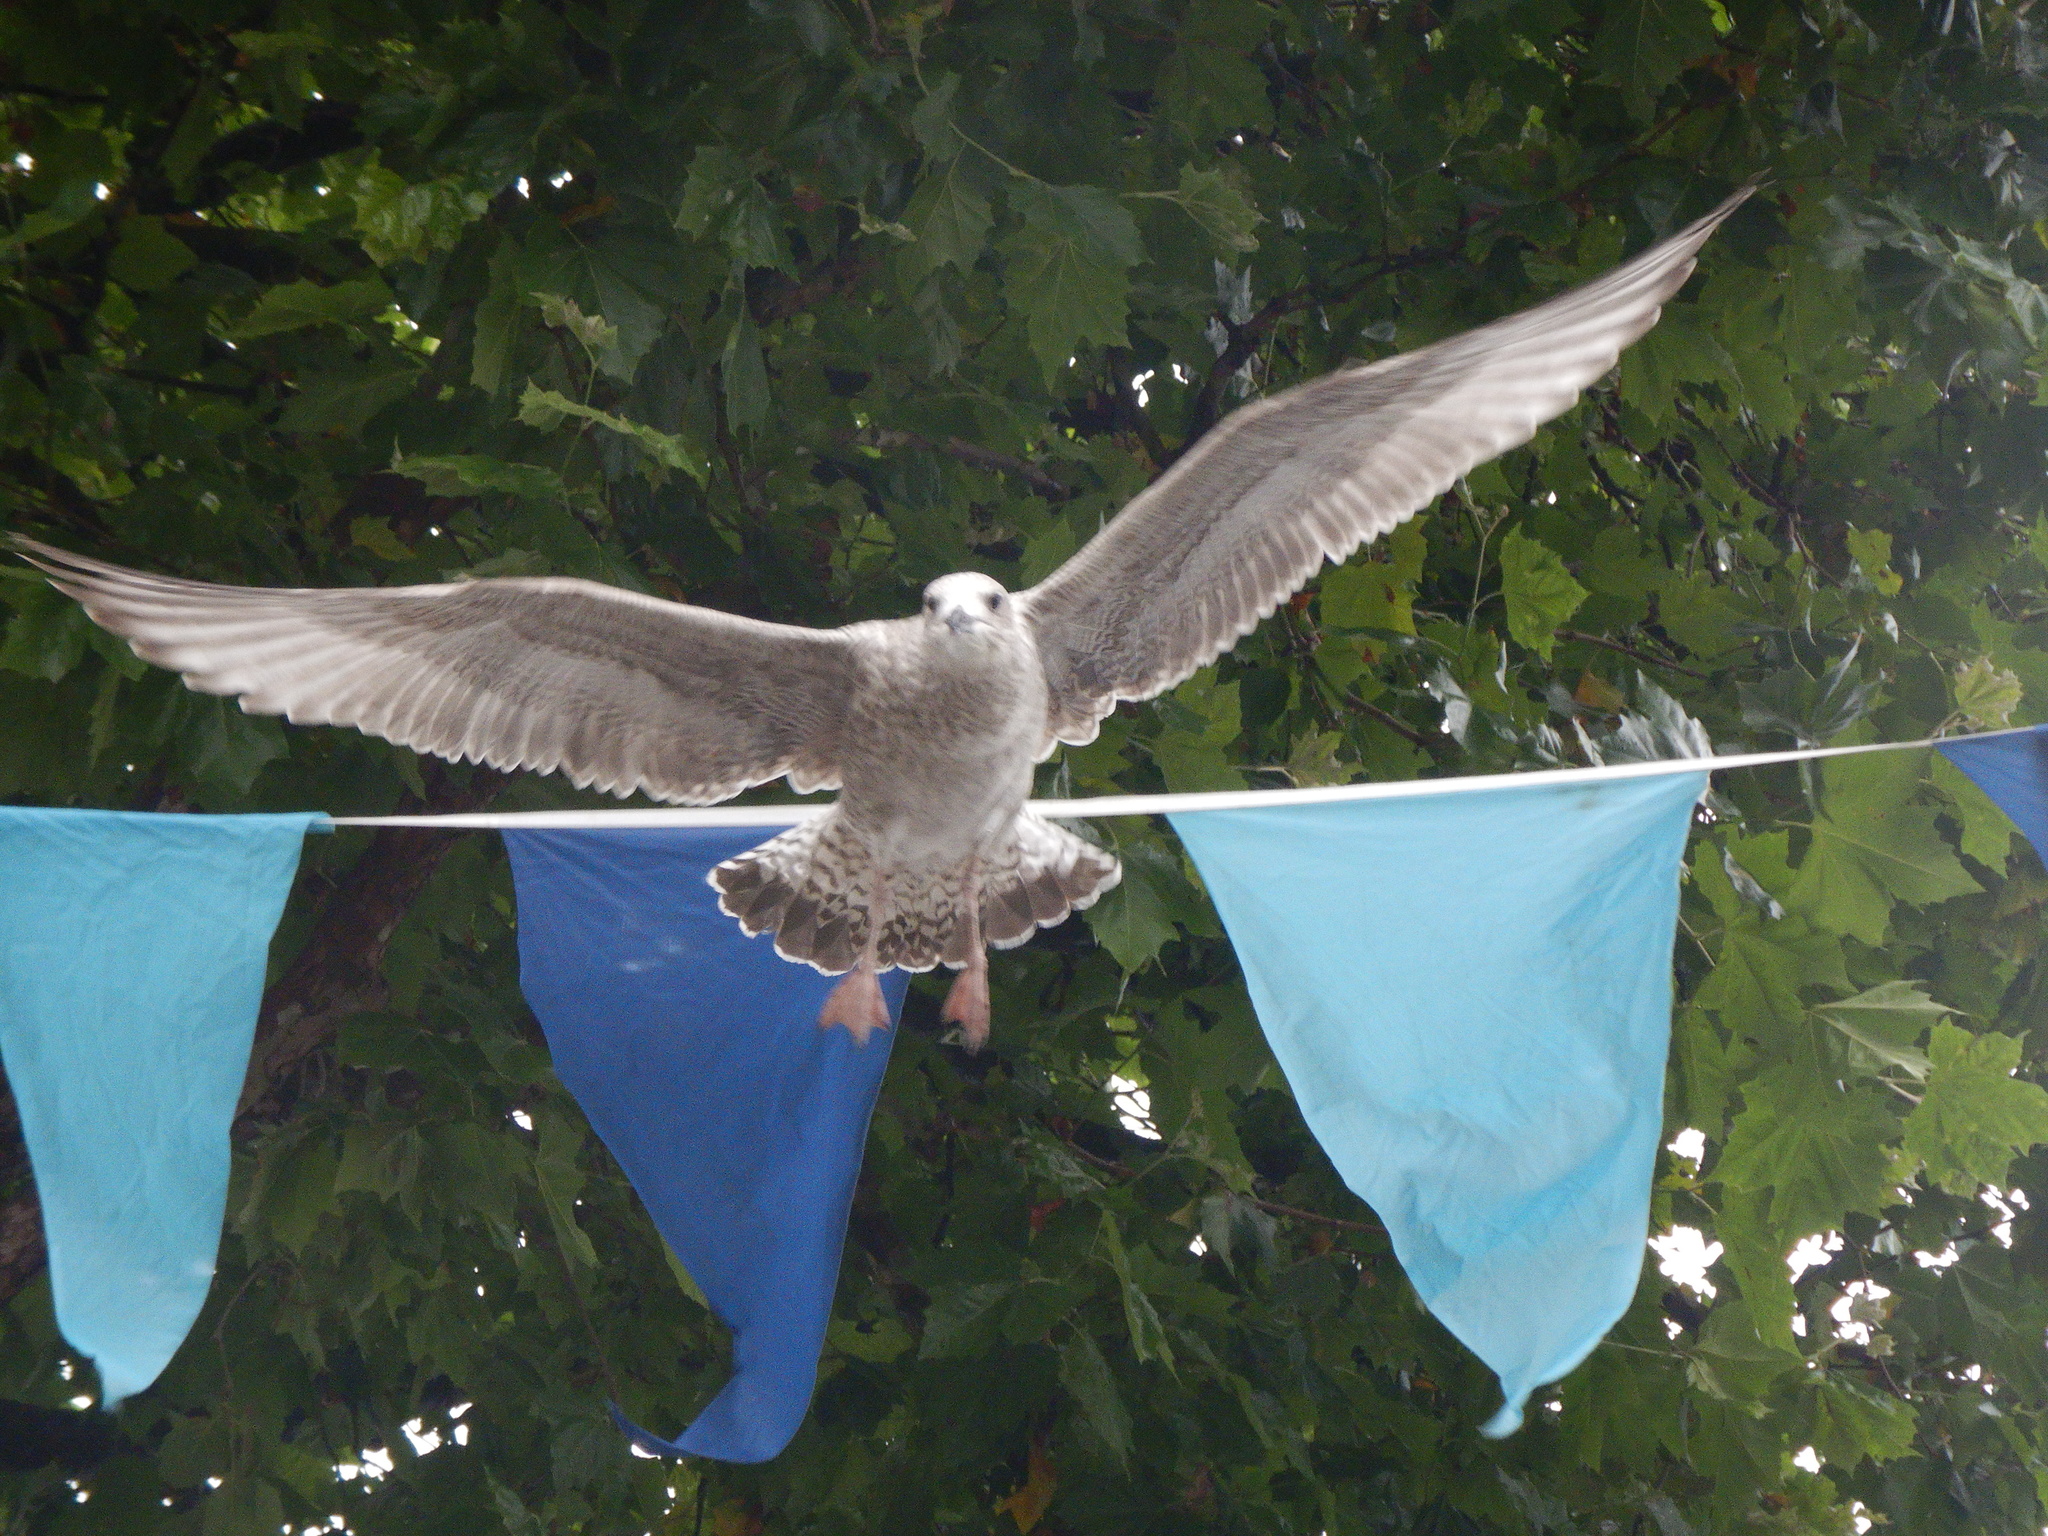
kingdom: Animalia
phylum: Chordata
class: Aves
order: Charadriiformes
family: Laridae
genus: Larus
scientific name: Larus argentatus
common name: Herring gull
